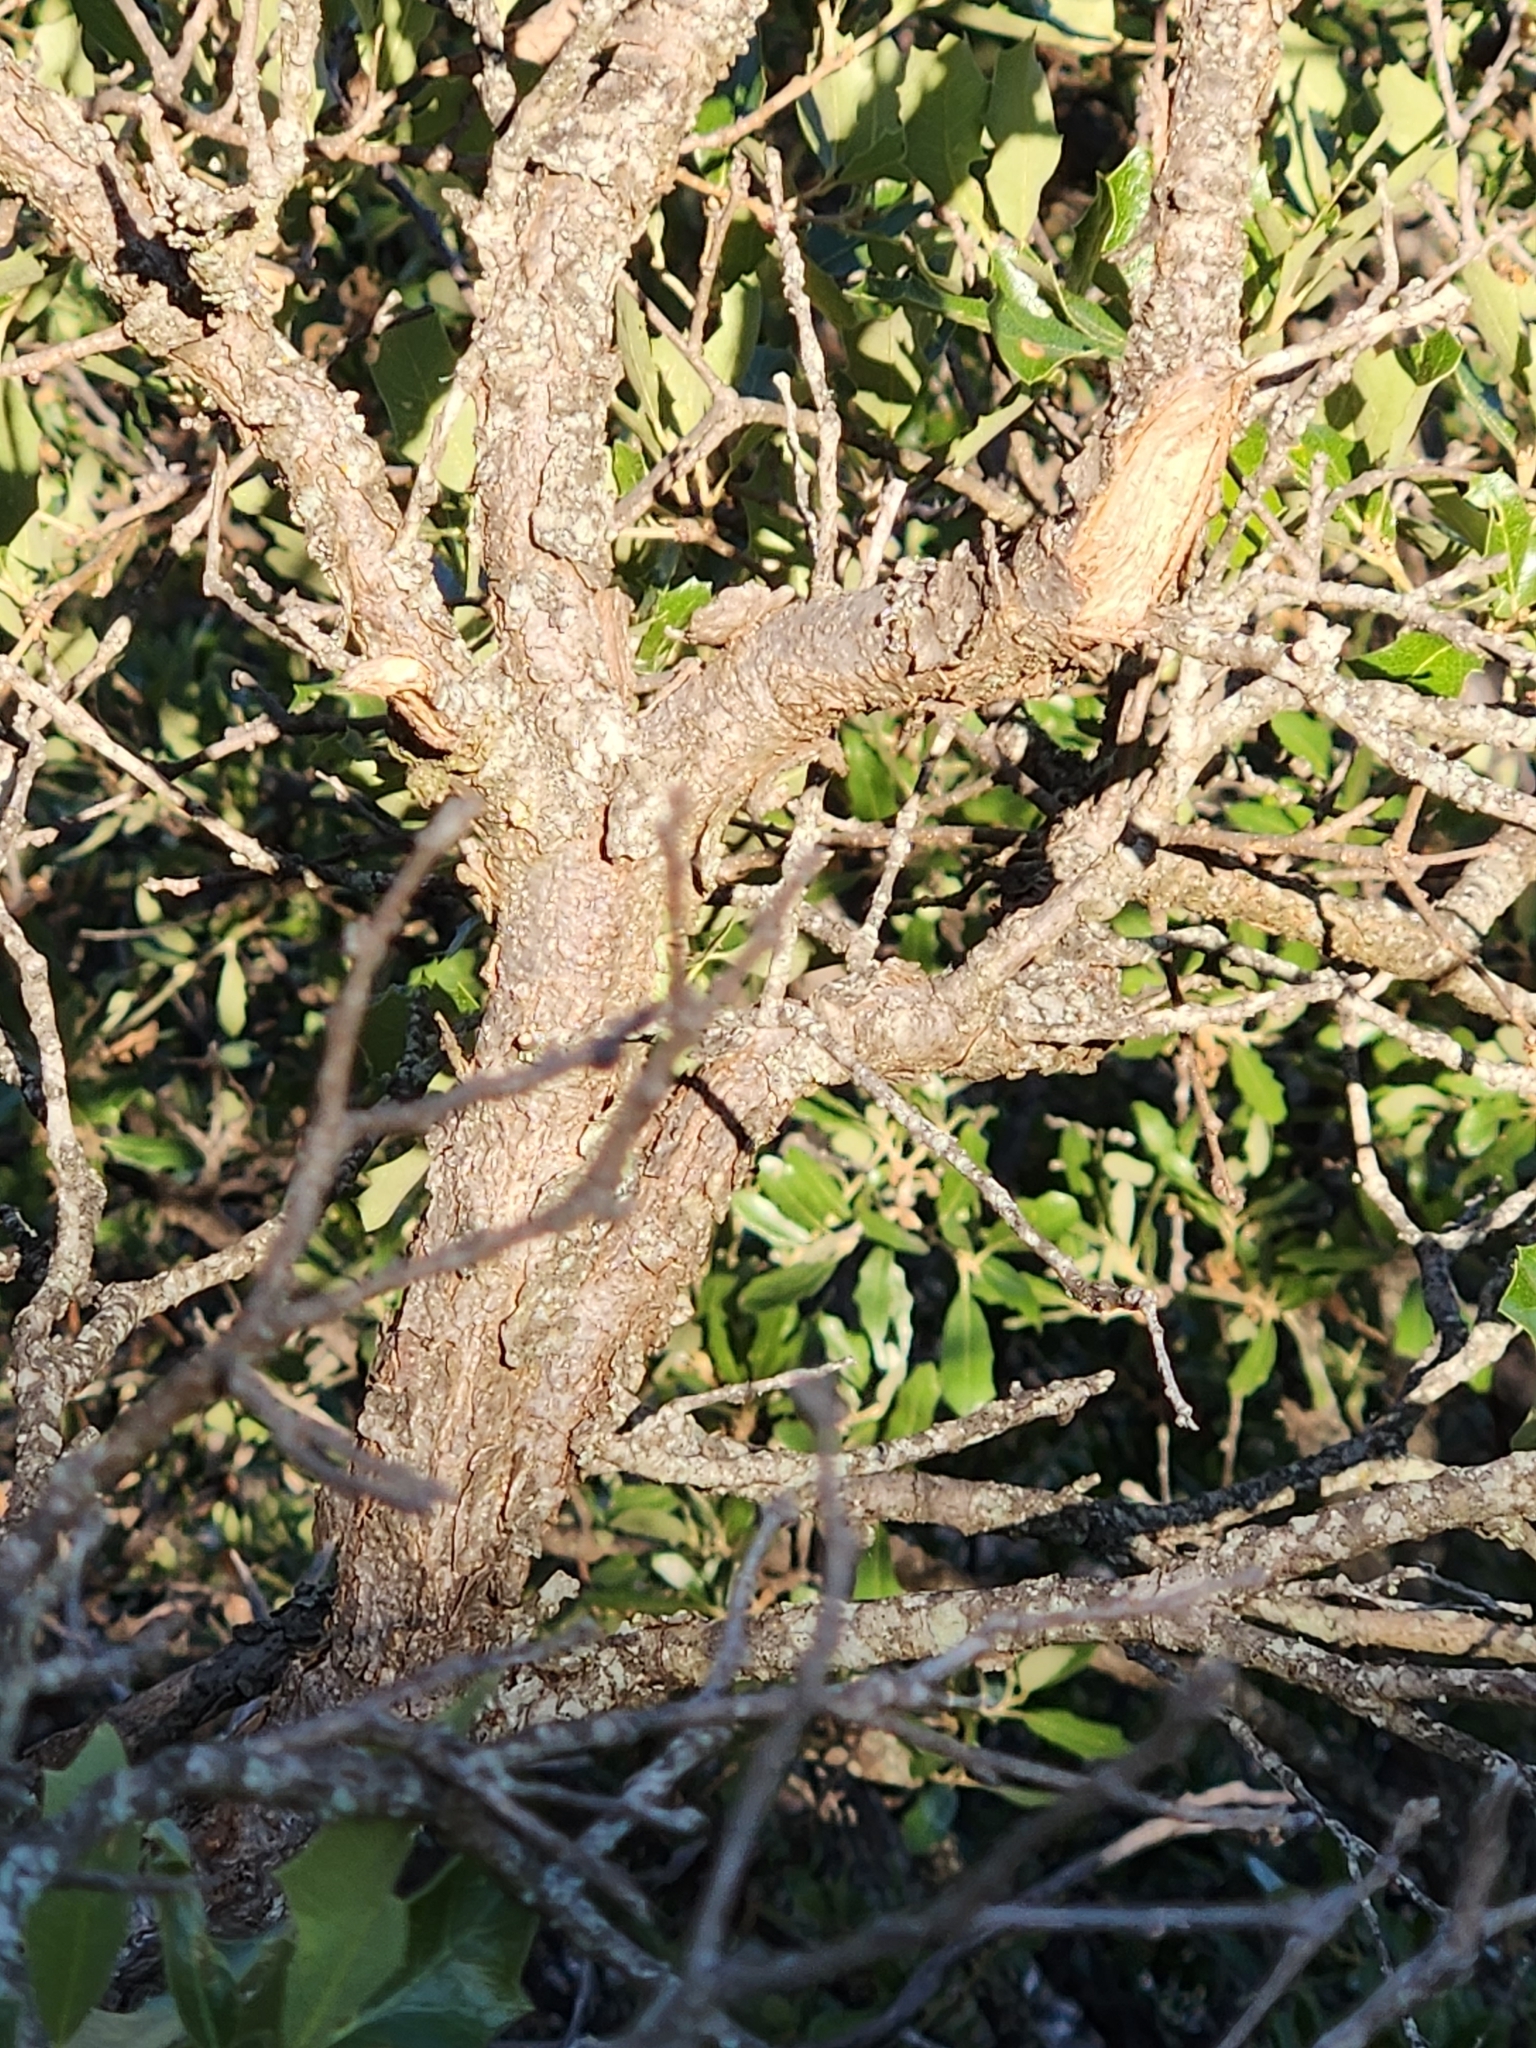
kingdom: Plantae
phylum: Tracheophyta
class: Magnoliopsida
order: Fagales
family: Fagaceae
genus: Quercus
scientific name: Quercus vaseyana
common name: Sandpaper oak
